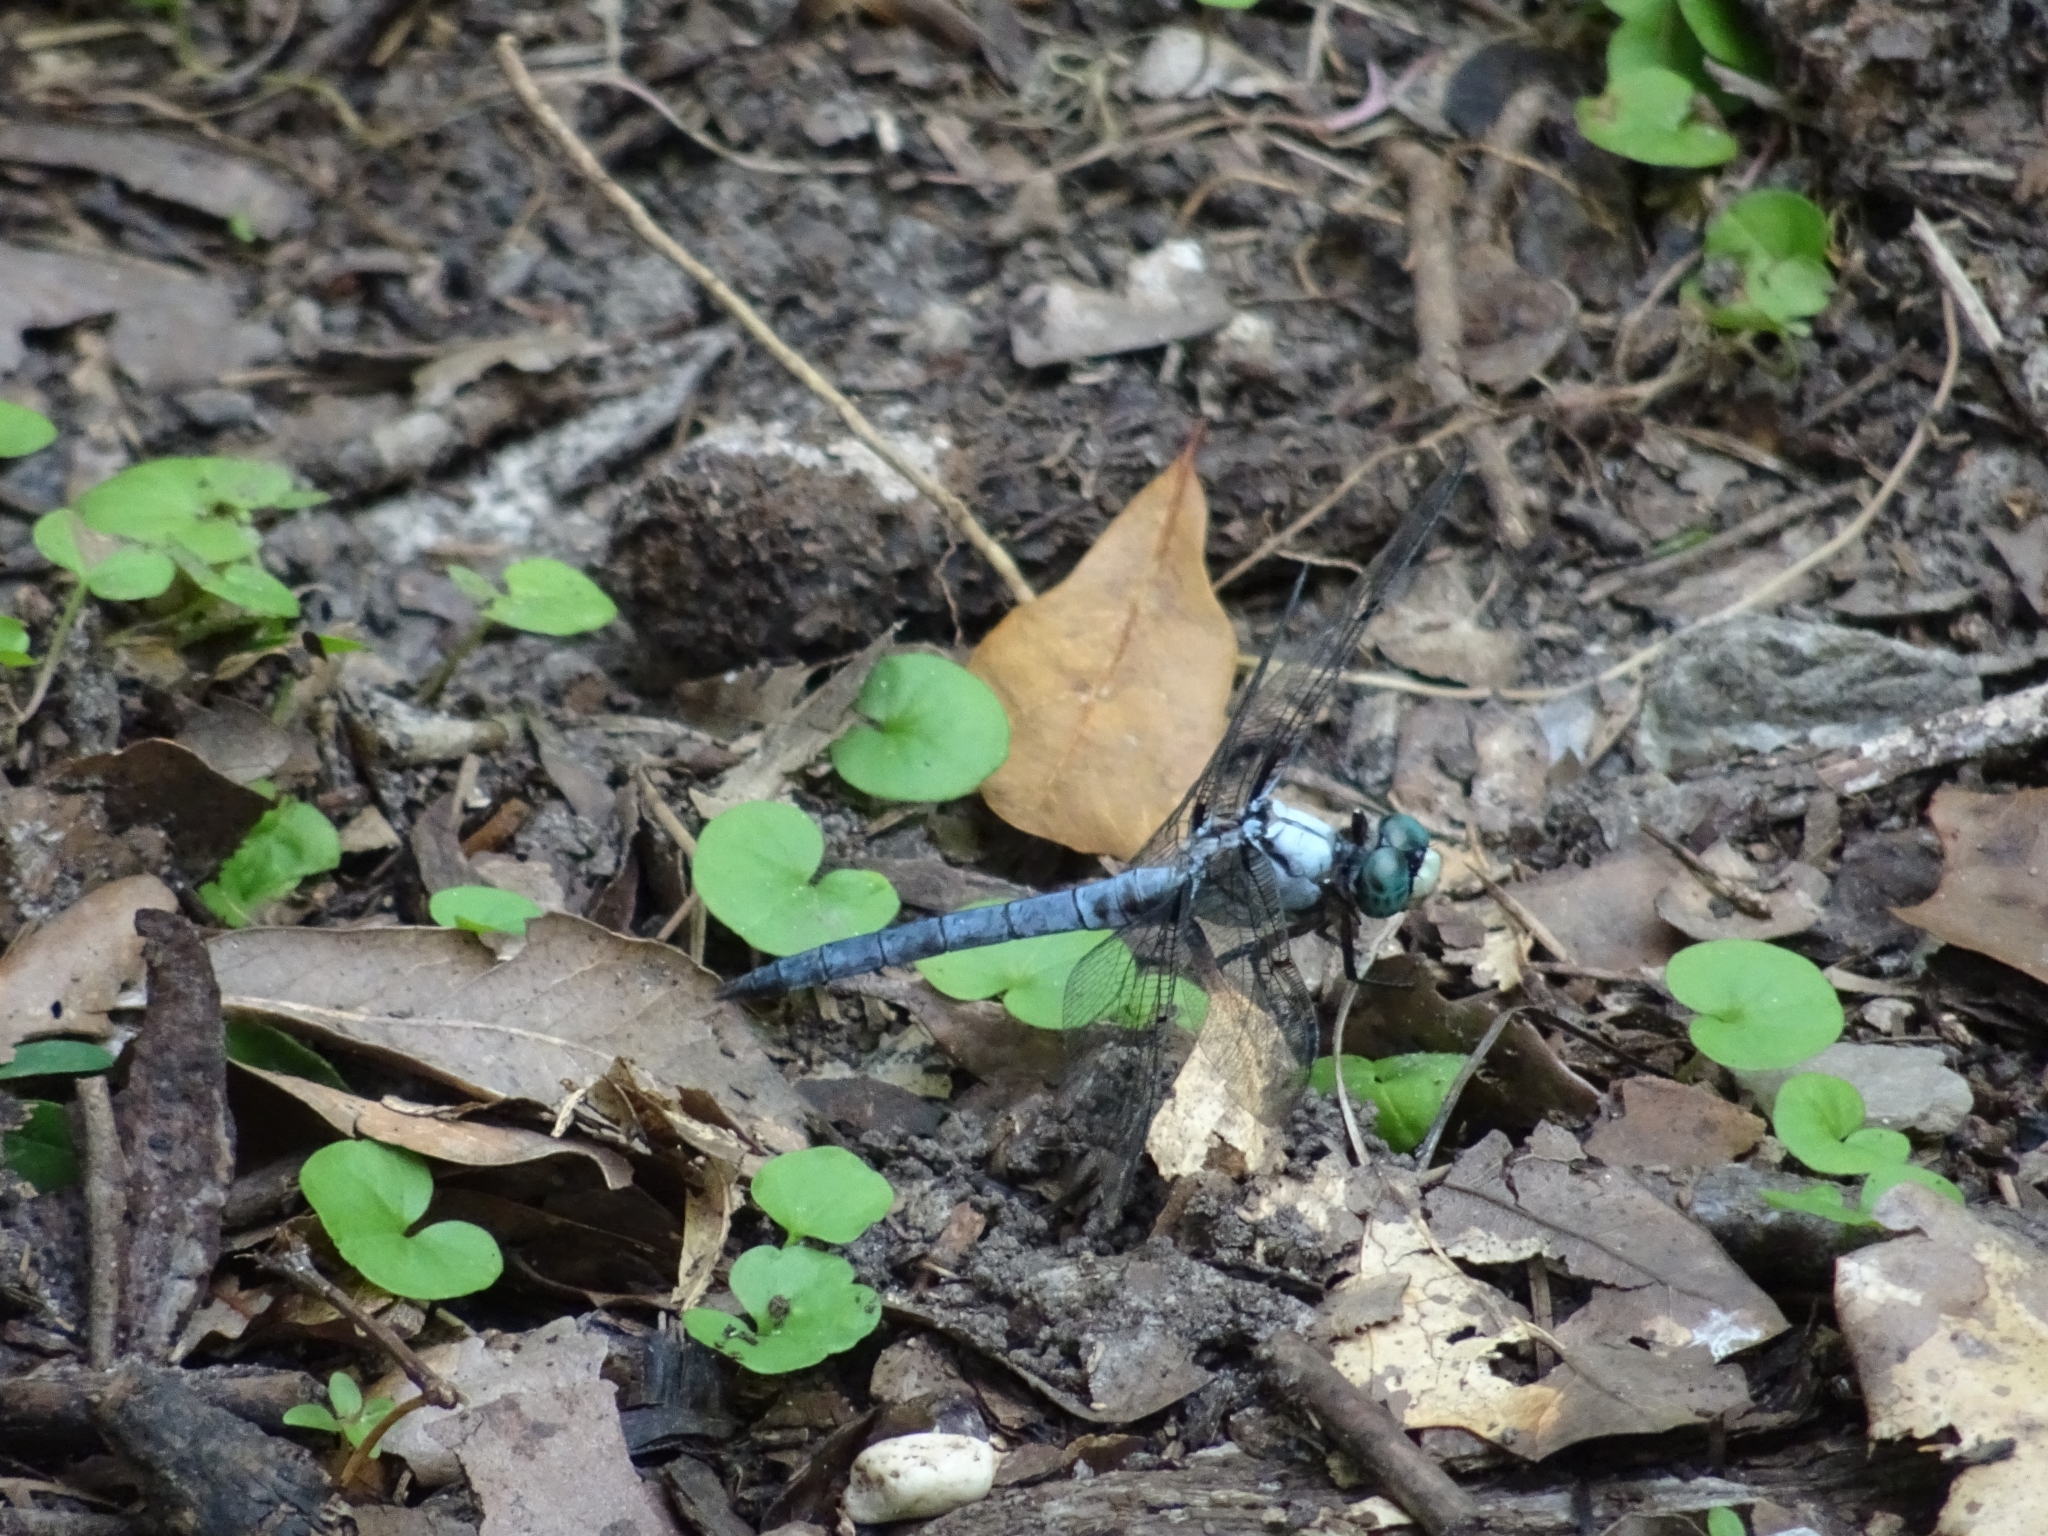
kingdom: Animalia
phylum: Arthropoda
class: Insecta
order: Odonata
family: Libellulidae
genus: Libellula
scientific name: Libellula vibrans
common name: Great blue skimmer
